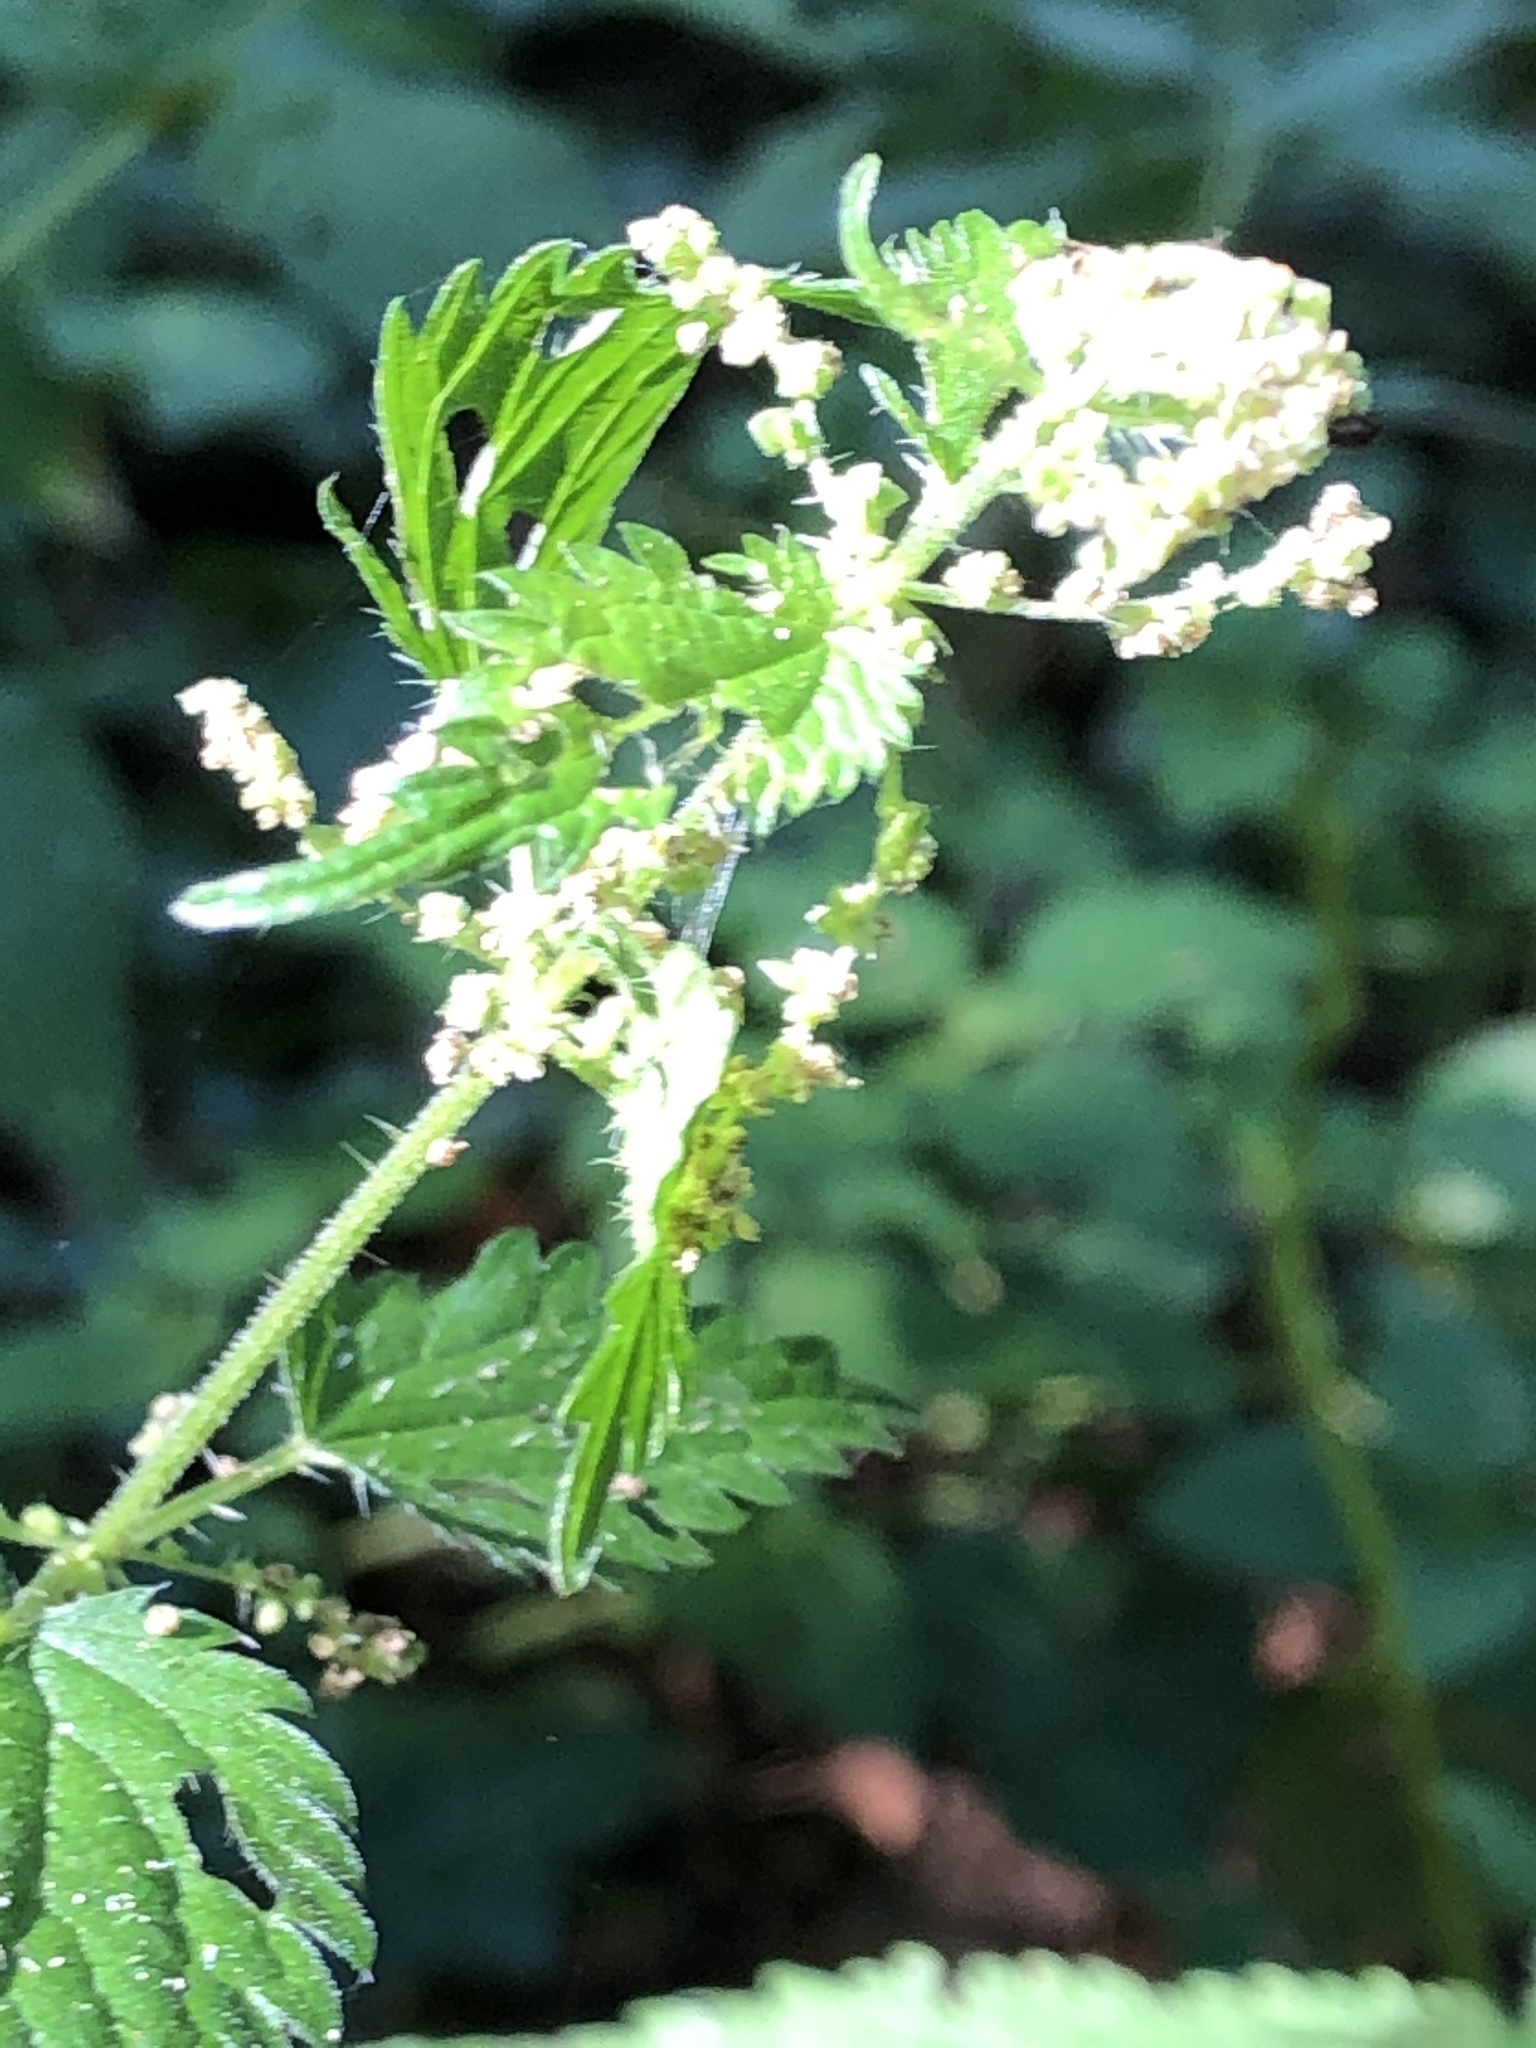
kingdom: Plantae
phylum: Tracheophyta
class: Magnoliopsida
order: Rosales
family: Urticaceae
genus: Urtica
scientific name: Urtica dioica
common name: Common nettle
